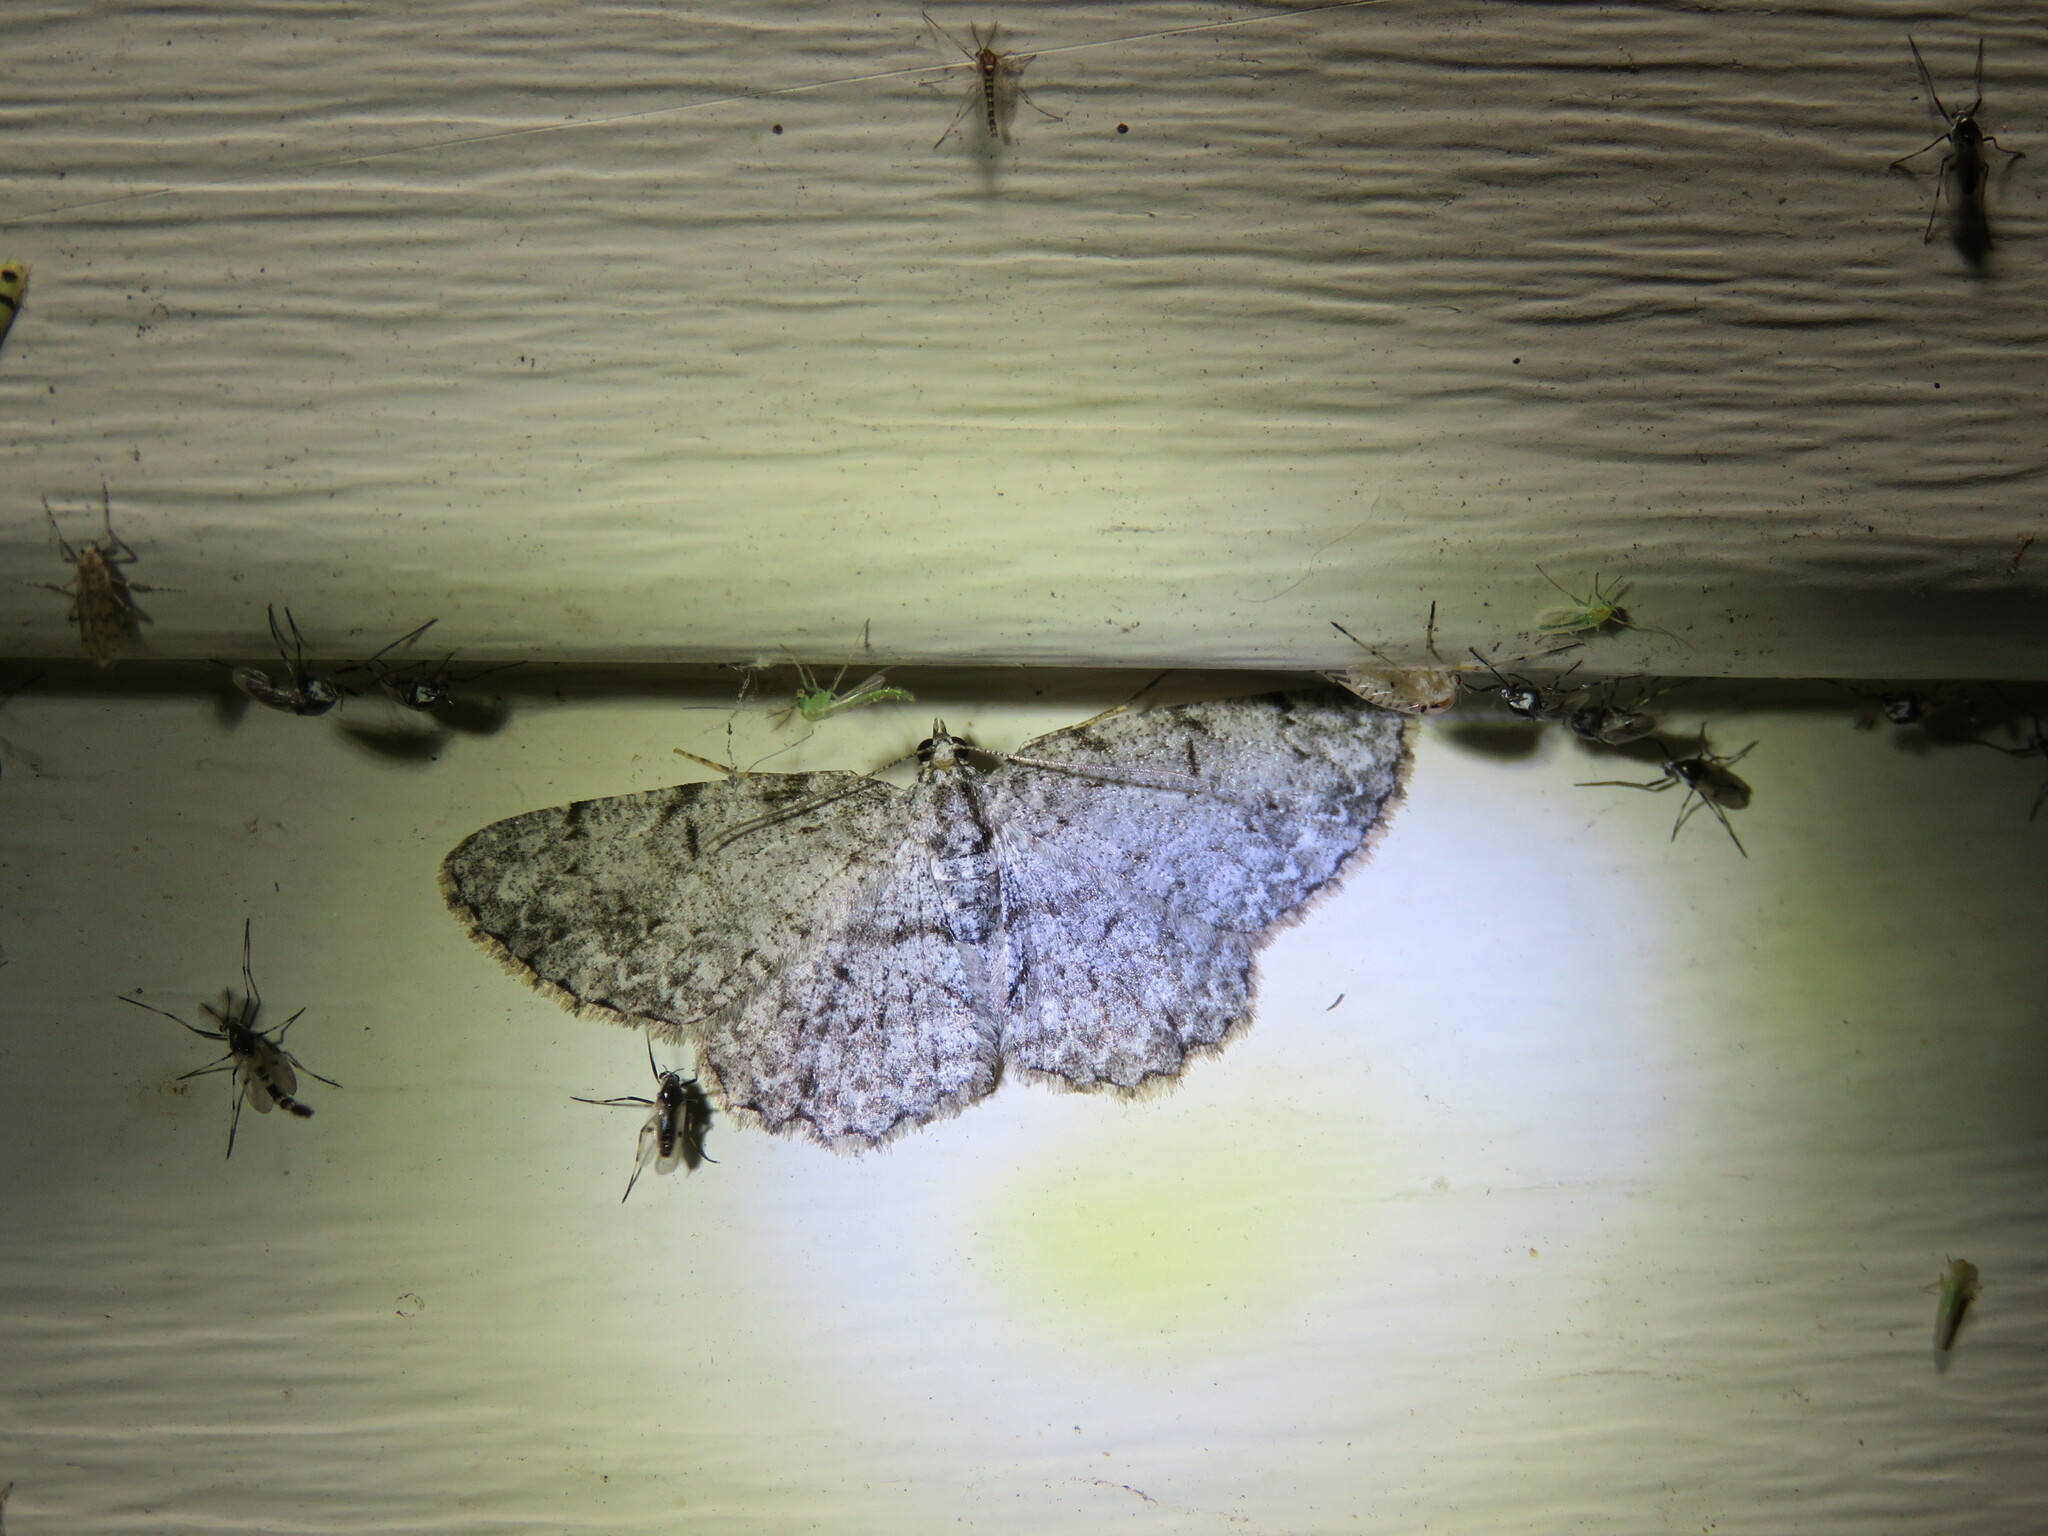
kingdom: Animalia
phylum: Arthropoda
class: Insecta
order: Lepidoptera
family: Geometridae
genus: Protoboarmia
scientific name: Protoboarmia porcelaria
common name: Porcelain gray
